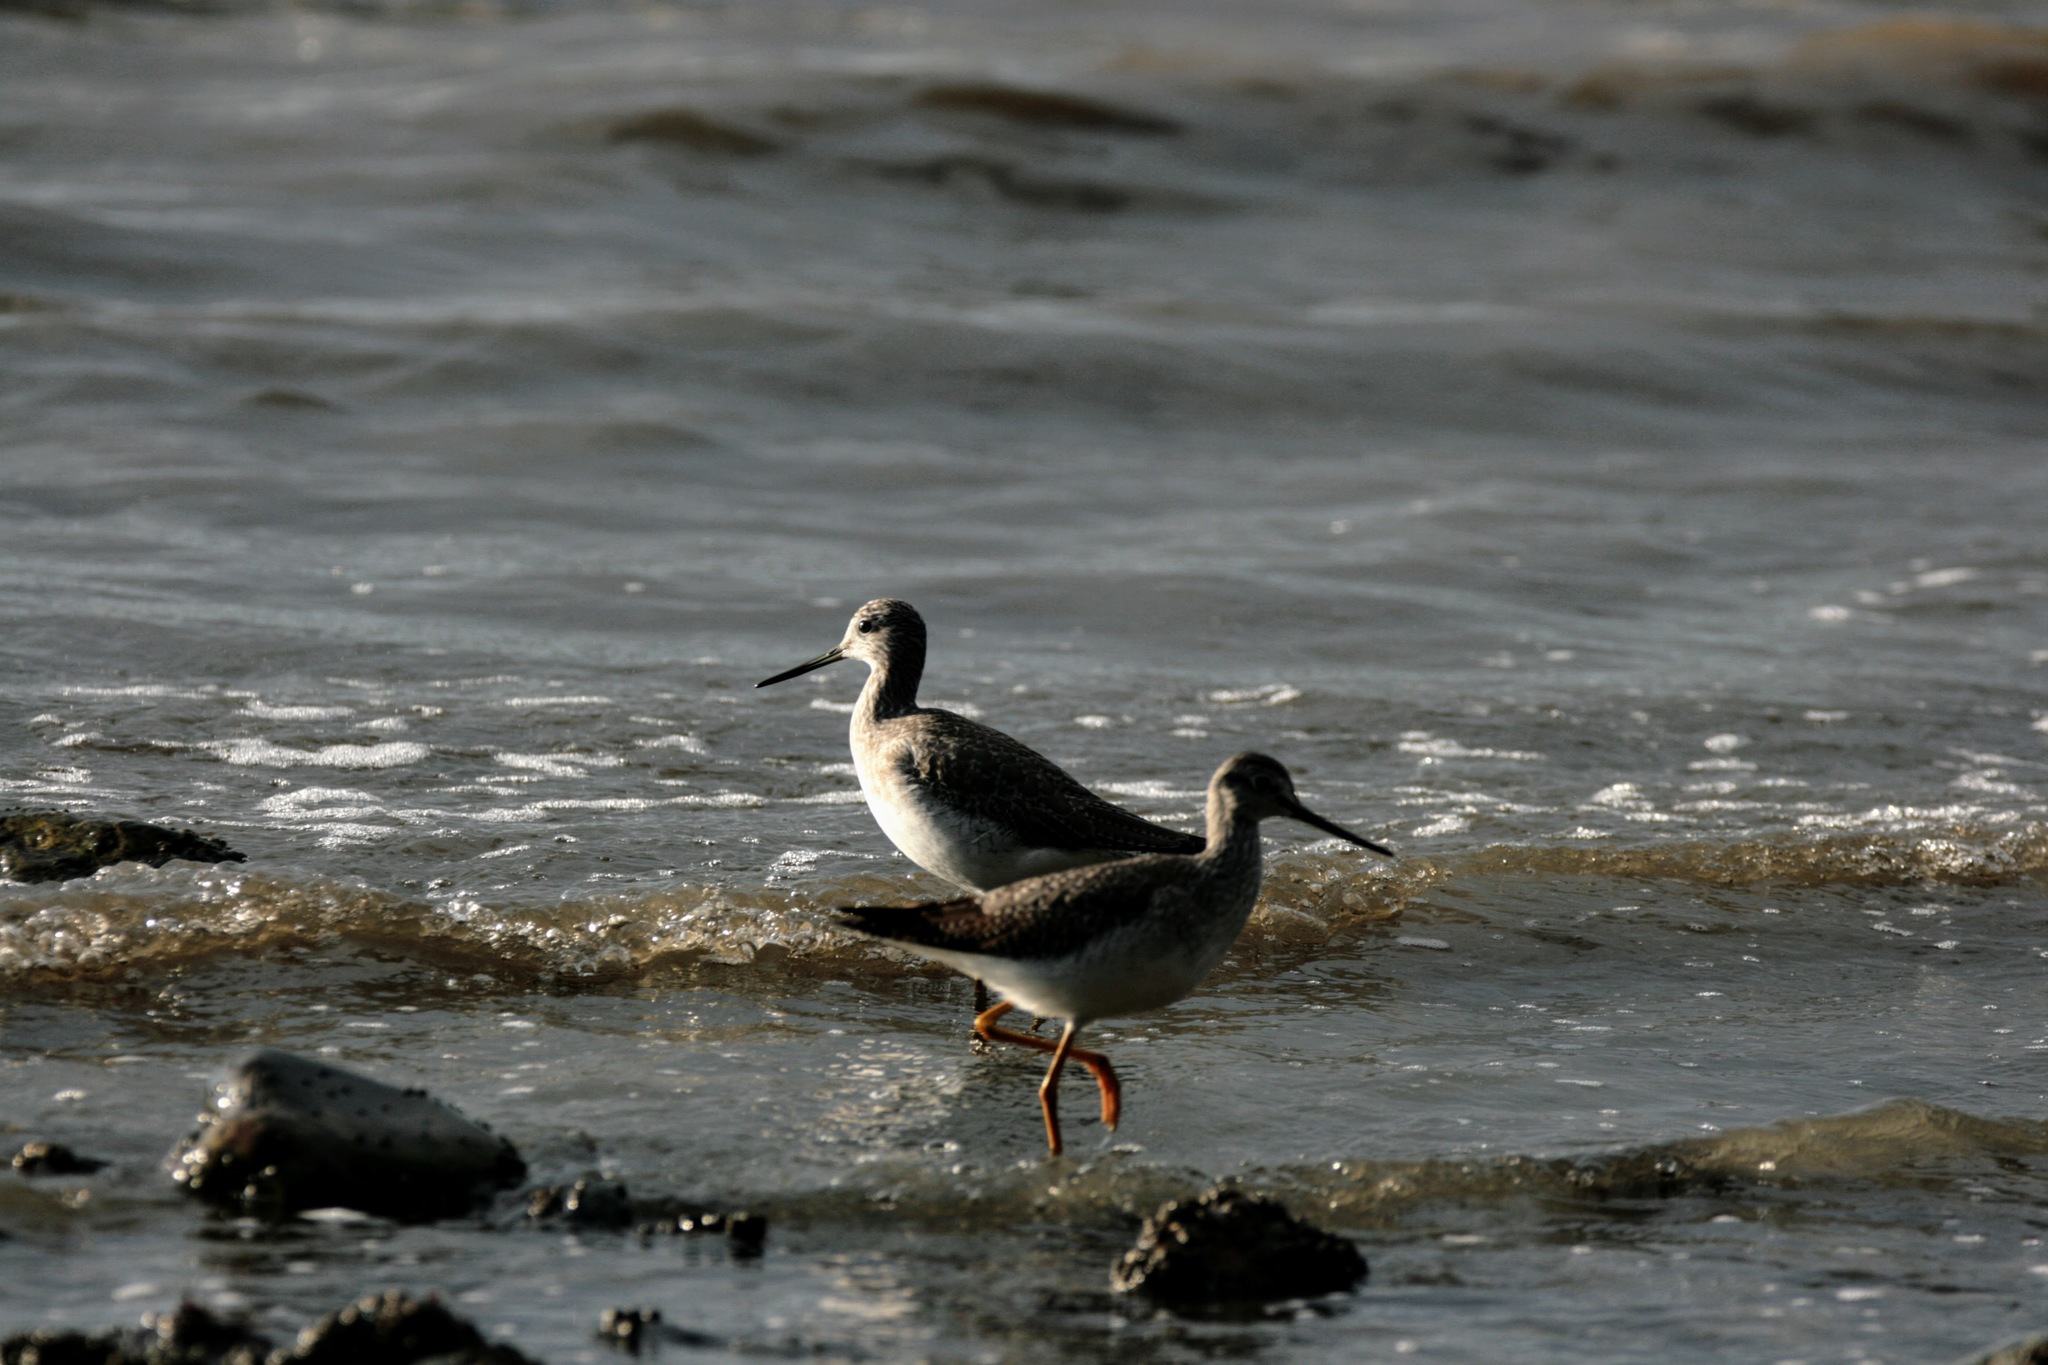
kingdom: Animalia
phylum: Chordata
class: Aves
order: Charadriiformes
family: Scolopacidae
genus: Tringa
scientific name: Tringa melanoleuca
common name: Greater yellowlegs
